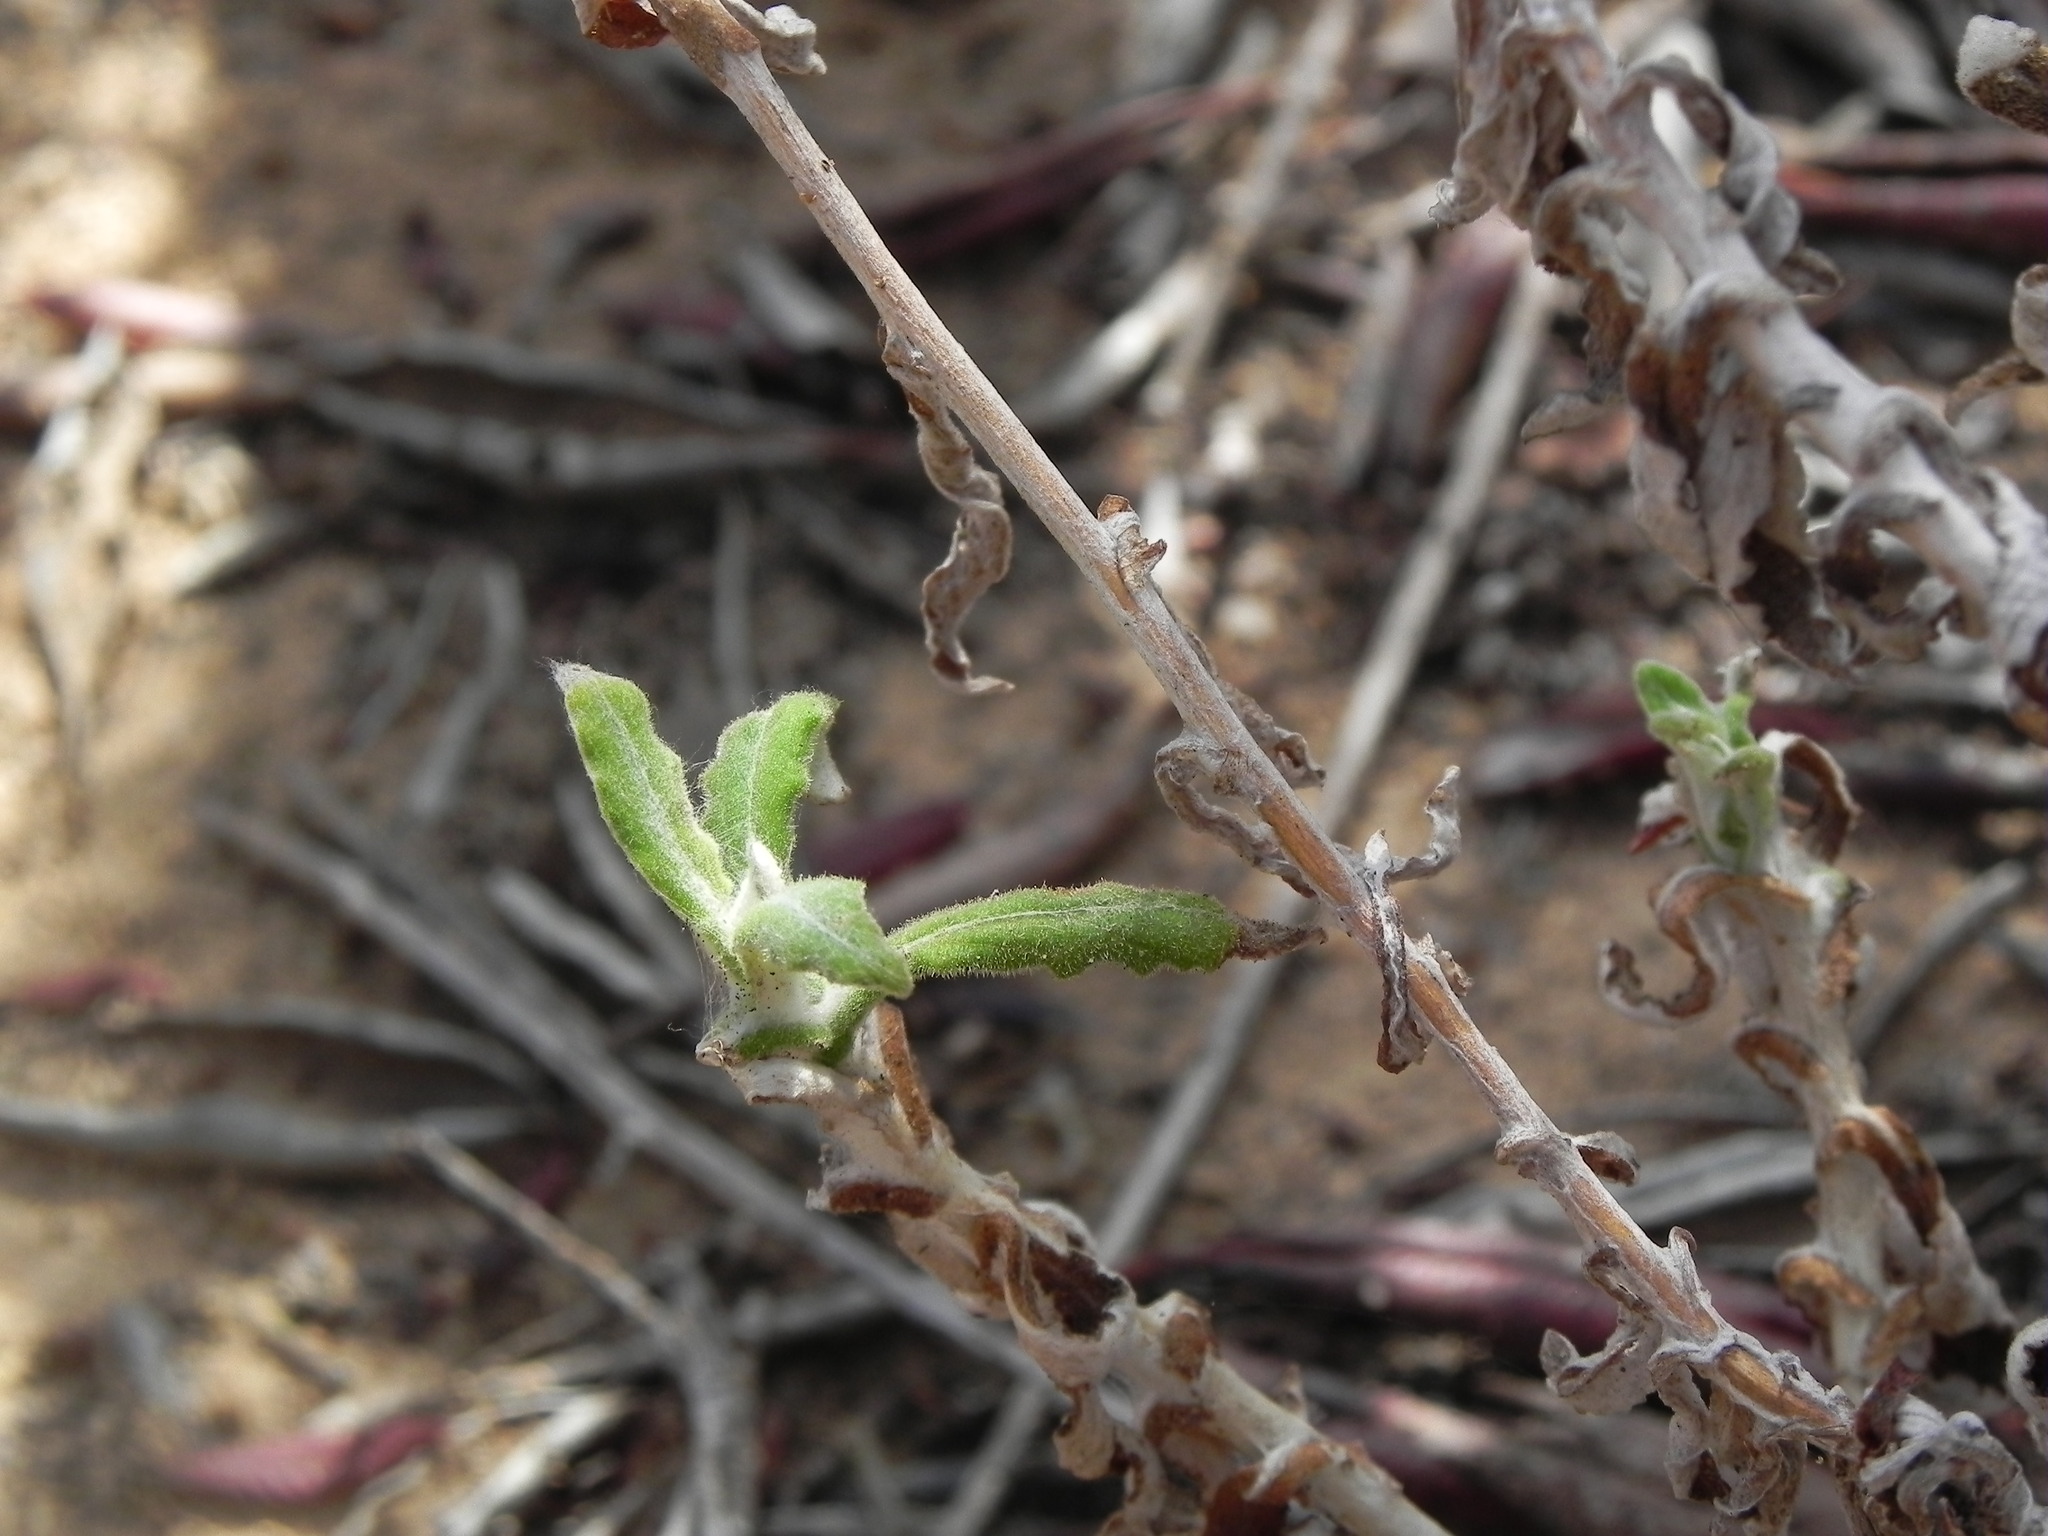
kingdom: Plantae
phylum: Tracheophyta
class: Magnoliopsida
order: Asterales
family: Asteraceae
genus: Pseudognaphalium
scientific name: Pseudognaphalium biolettii
